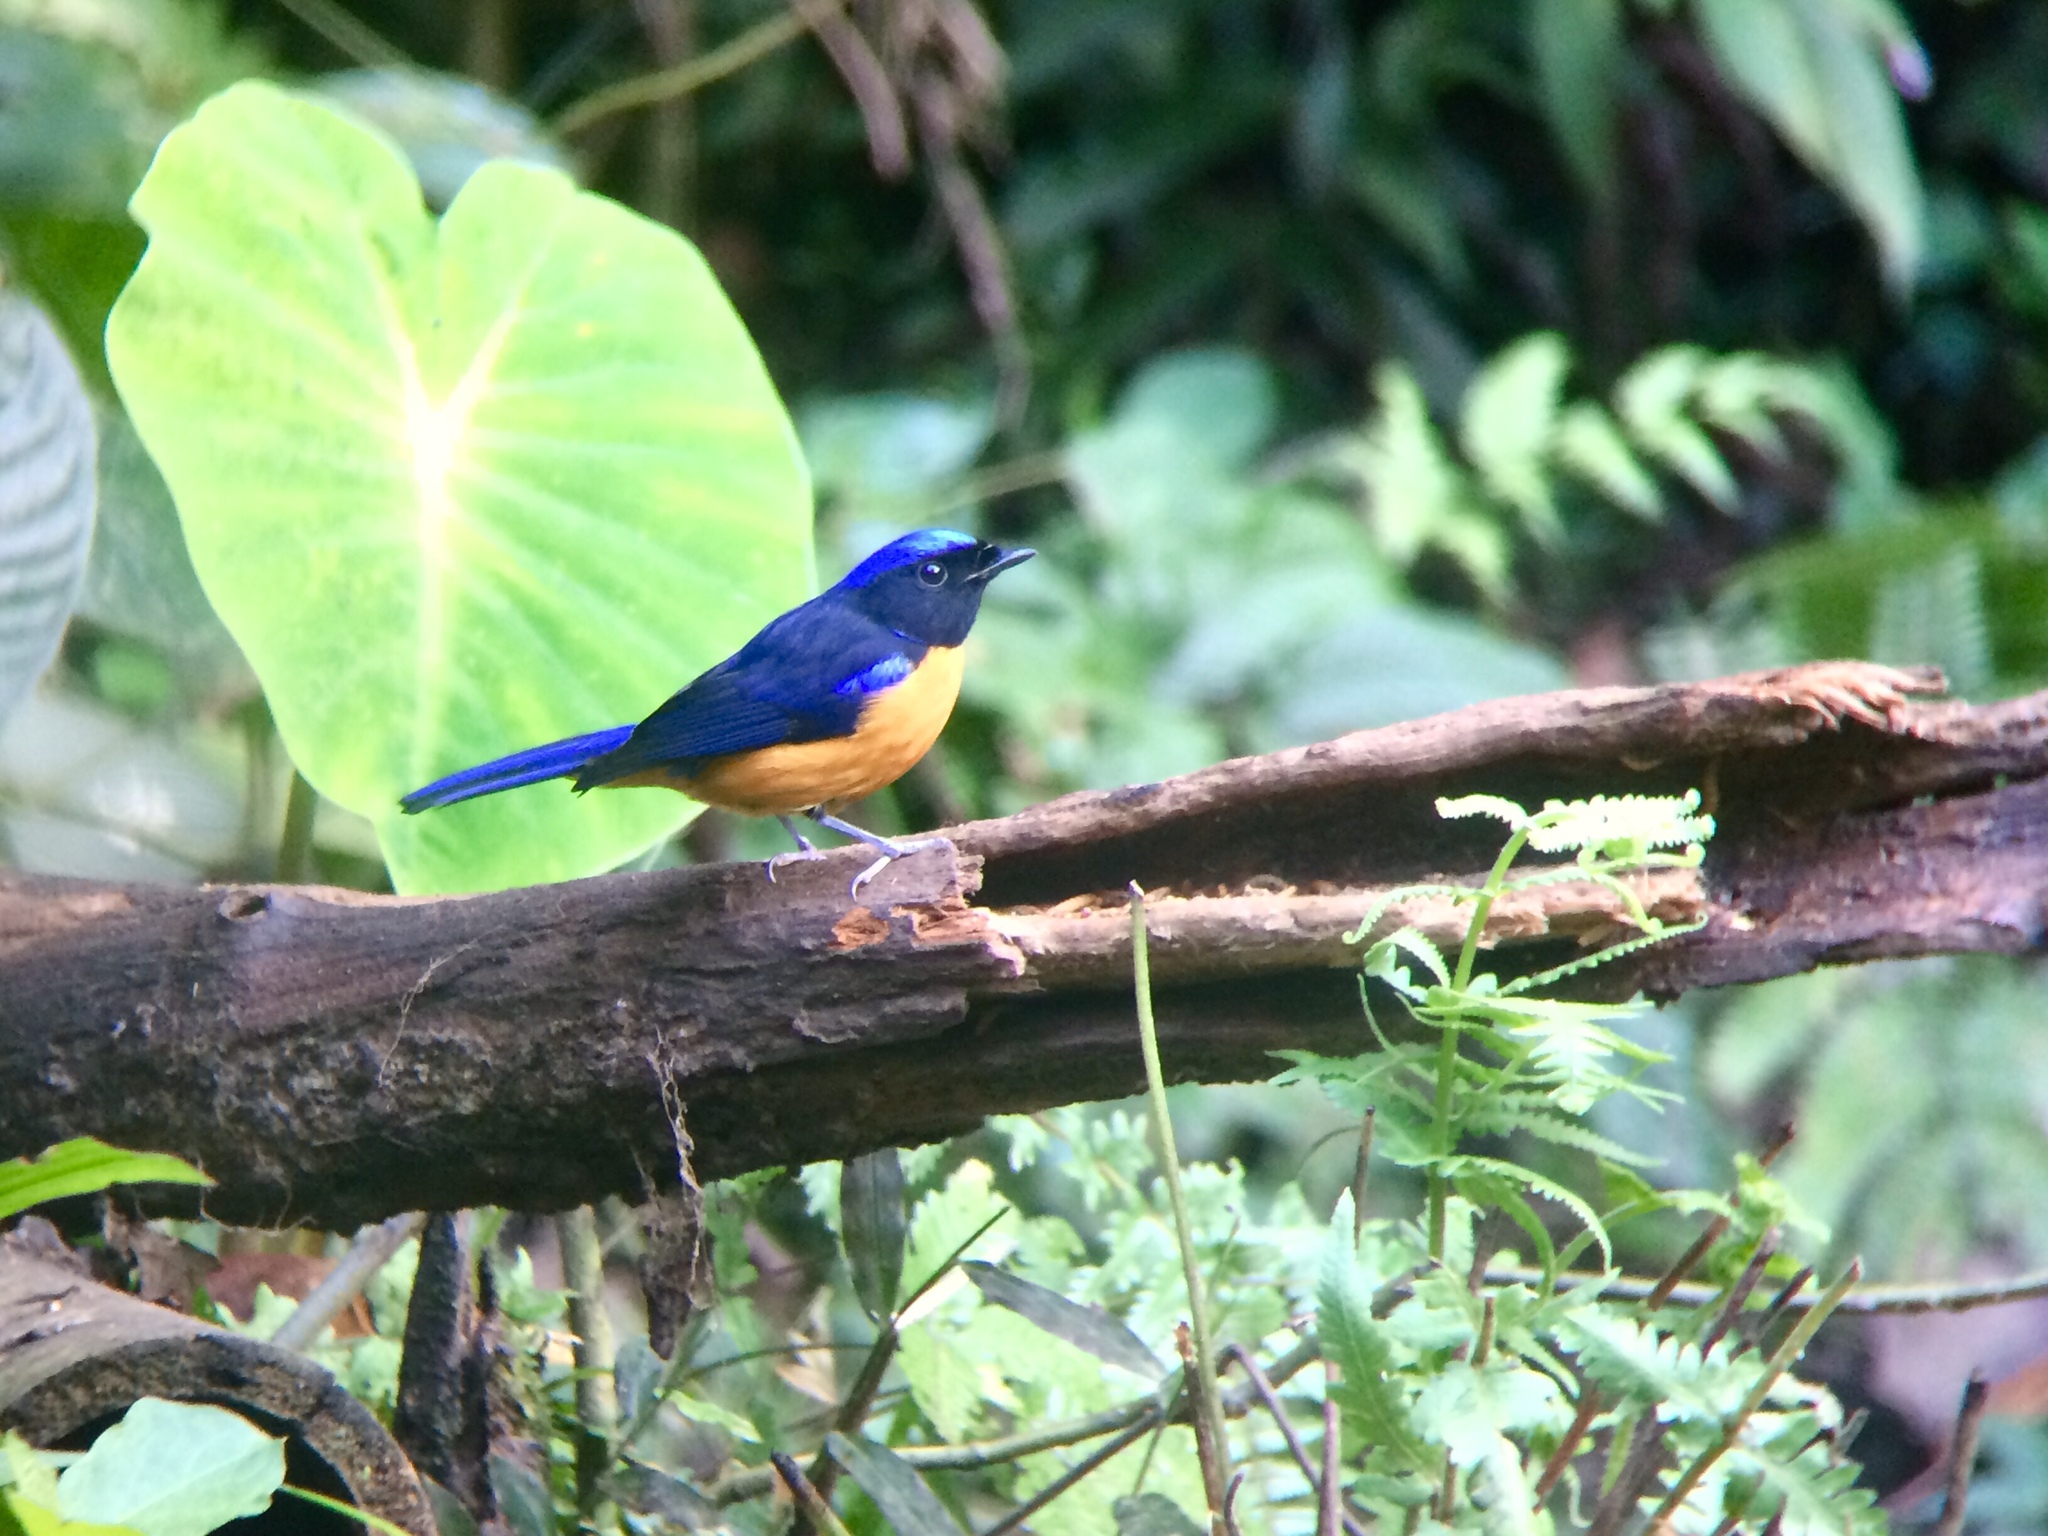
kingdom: Animalia
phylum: Chordata
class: Aves
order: Passeriformes
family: Muscicapidae
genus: Niltava
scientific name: Niltava sundara
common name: Rufous-bellied niltava
